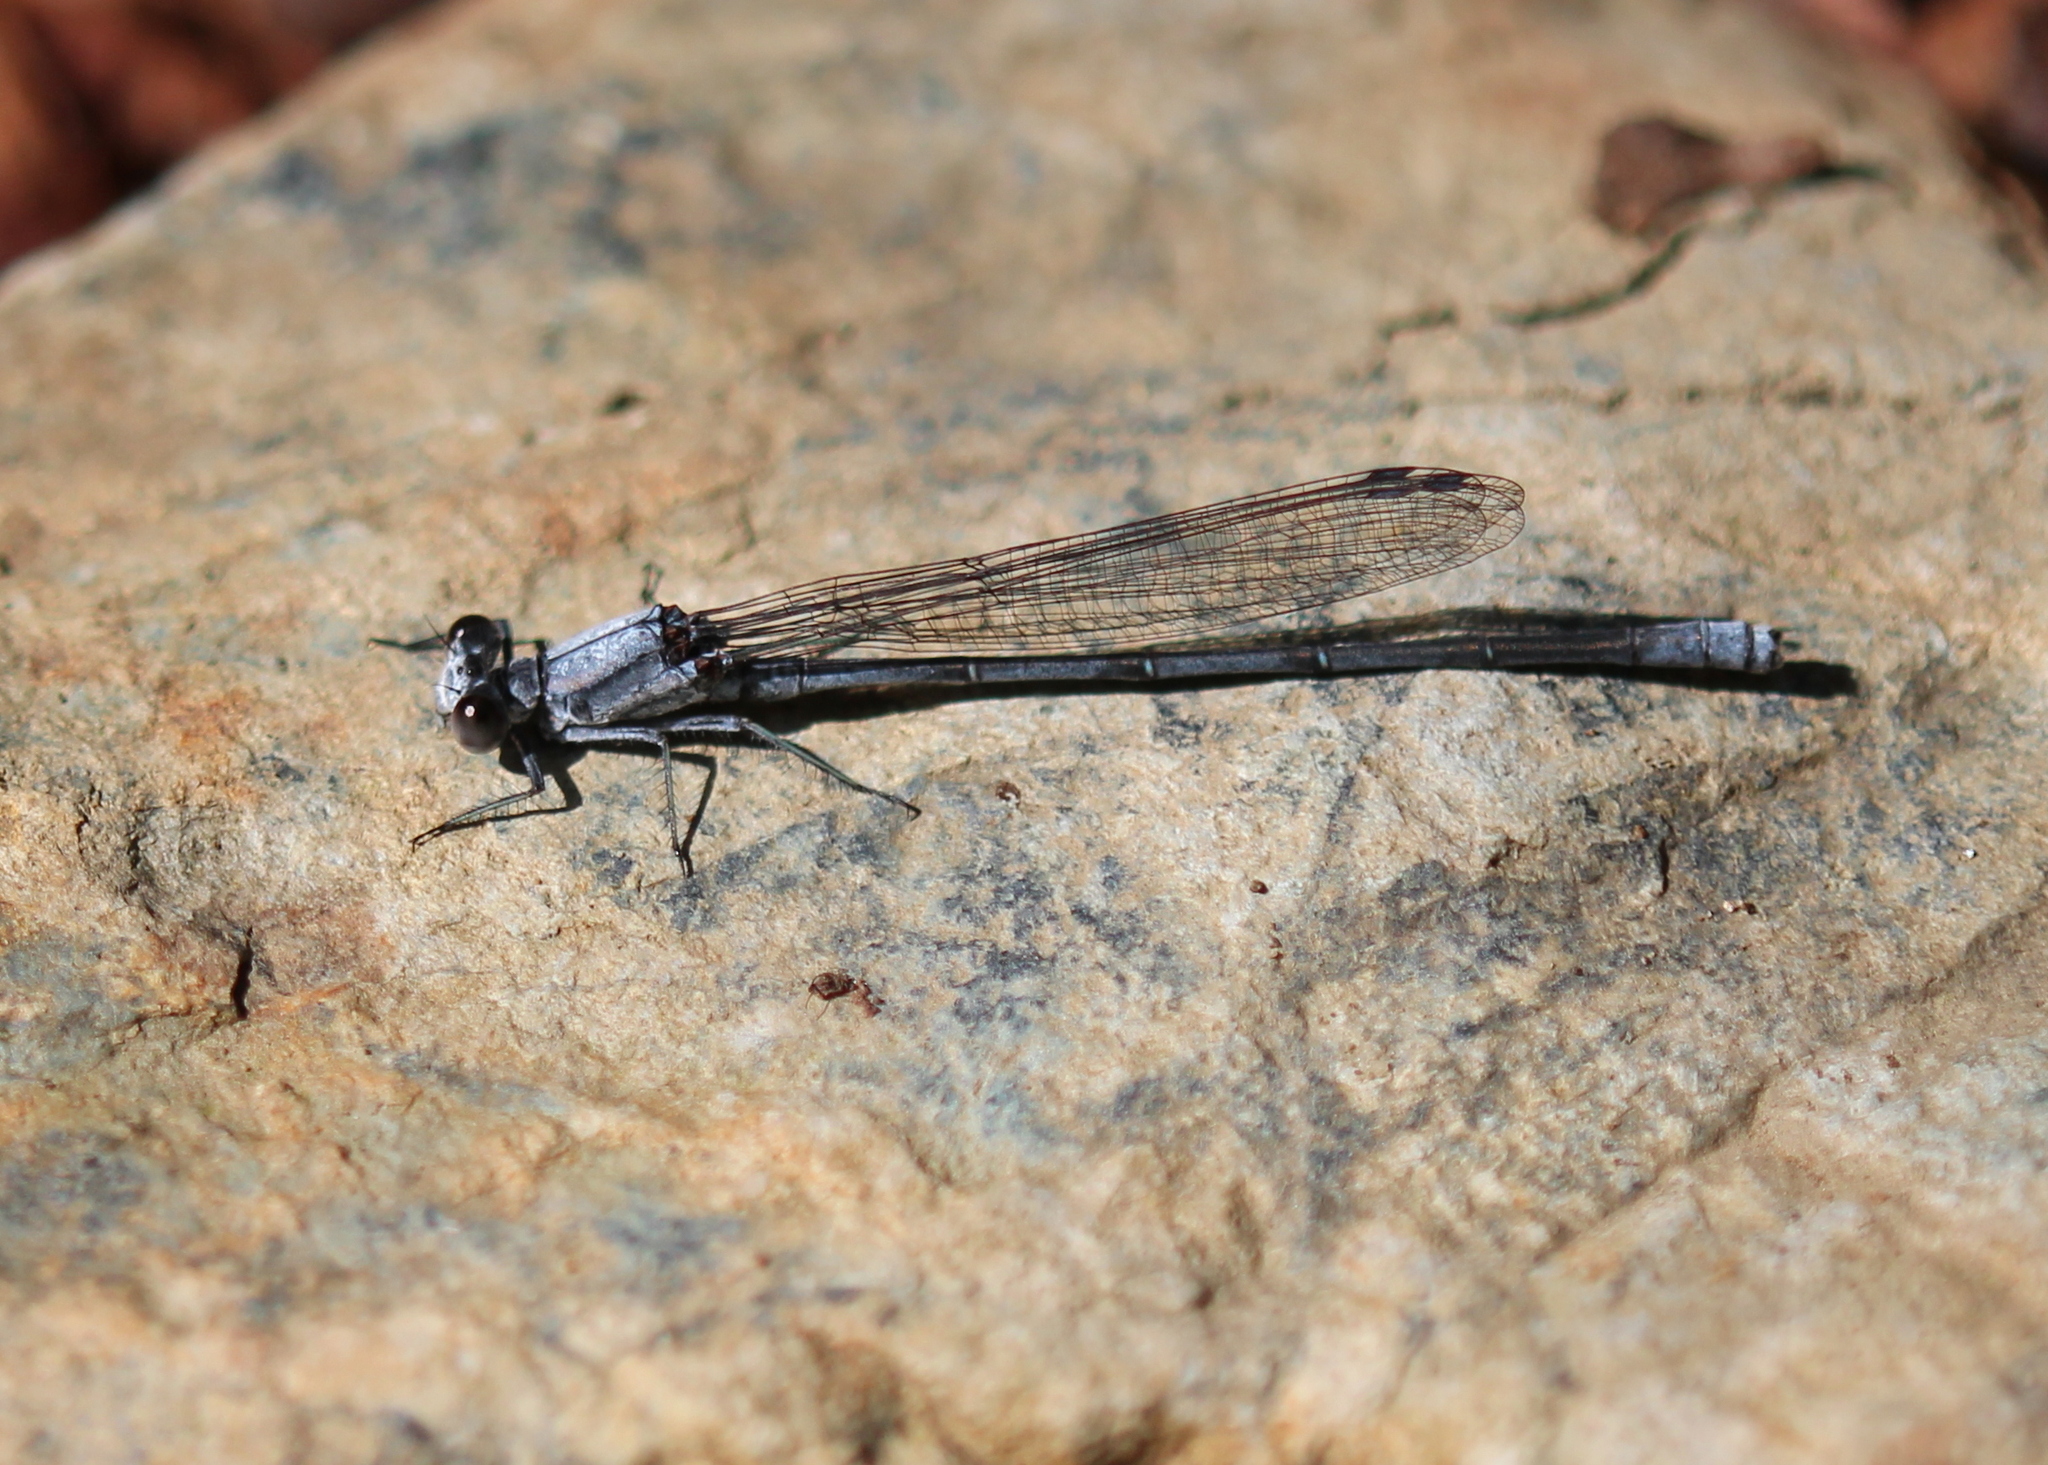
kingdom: Animalia
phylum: Arthropoda
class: Insecta
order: Odonata
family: Coenagrionidae
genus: Argia
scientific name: Argia moesta
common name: Powdered dancer
